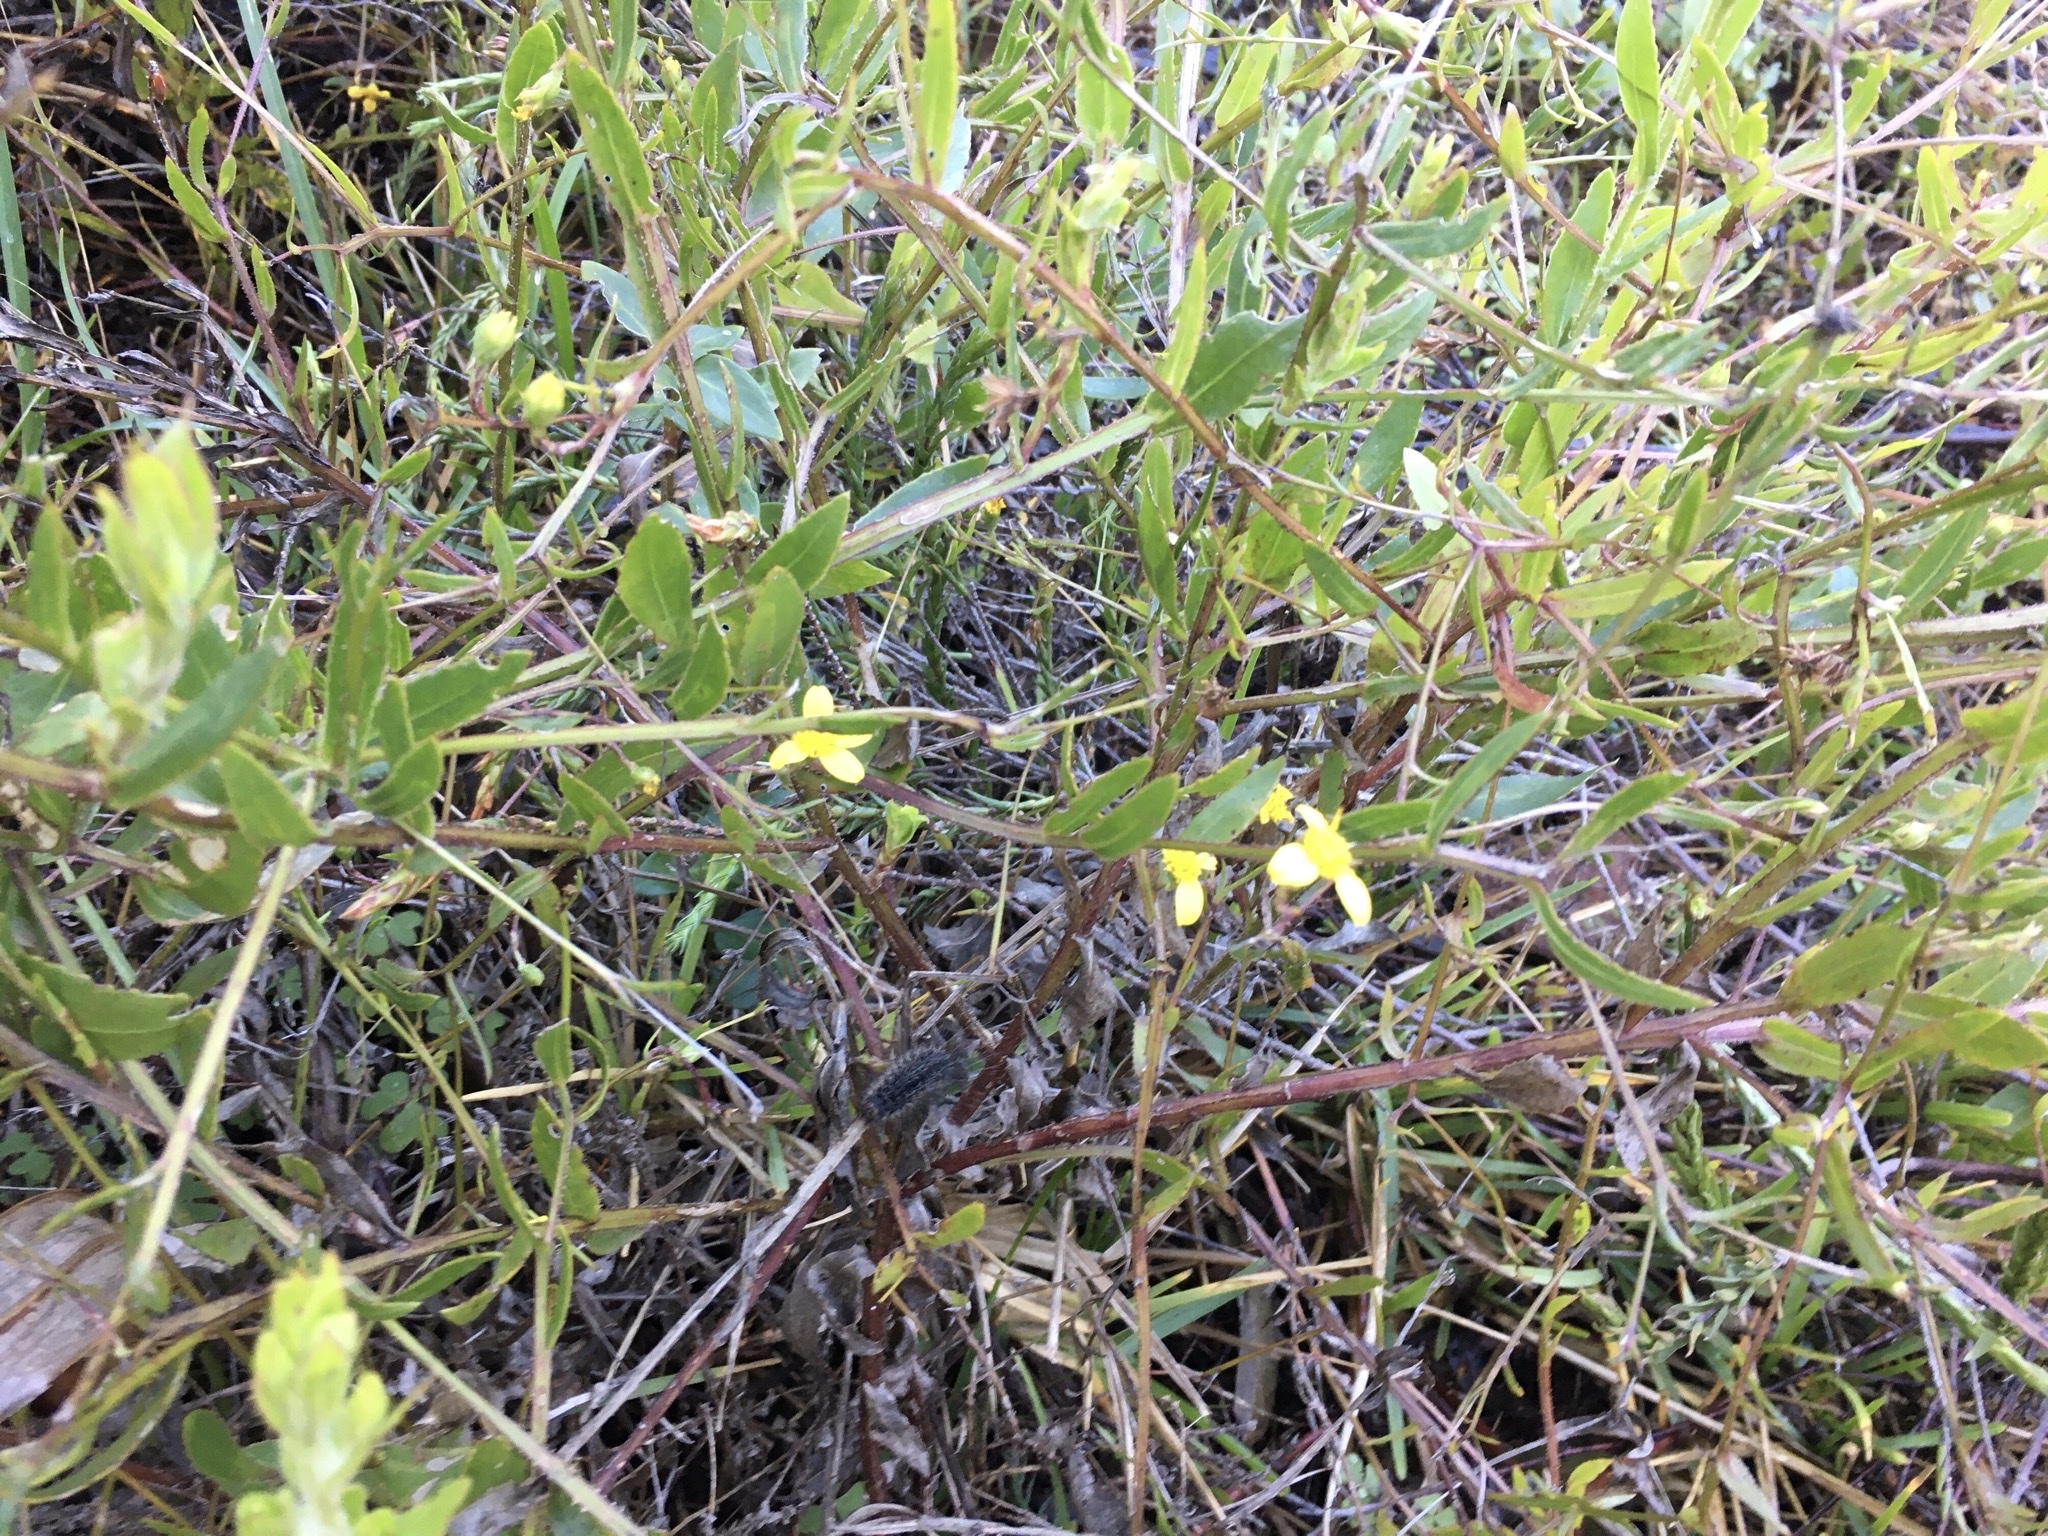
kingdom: Plantae
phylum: Tracheophyta
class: Magnoliopsida
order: Asterales
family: Asteraceae
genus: Osteospermum
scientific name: Osteospermum ciliatum
